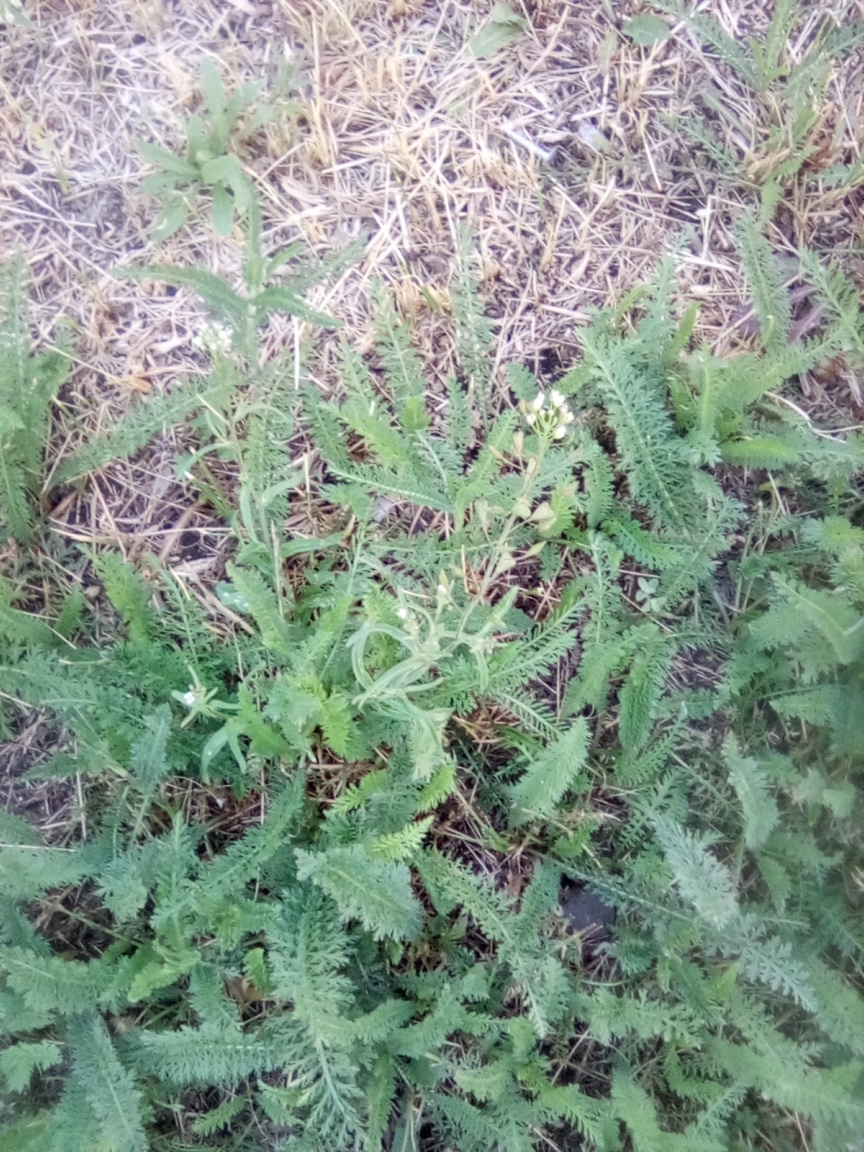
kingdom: Plantae
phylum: Tracheophyta
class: Magnoliopsida
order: Brassicales
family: Brassicaceae
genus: Capsella
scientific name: Capsella bursa-pastoris
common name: Shepherd's purse
